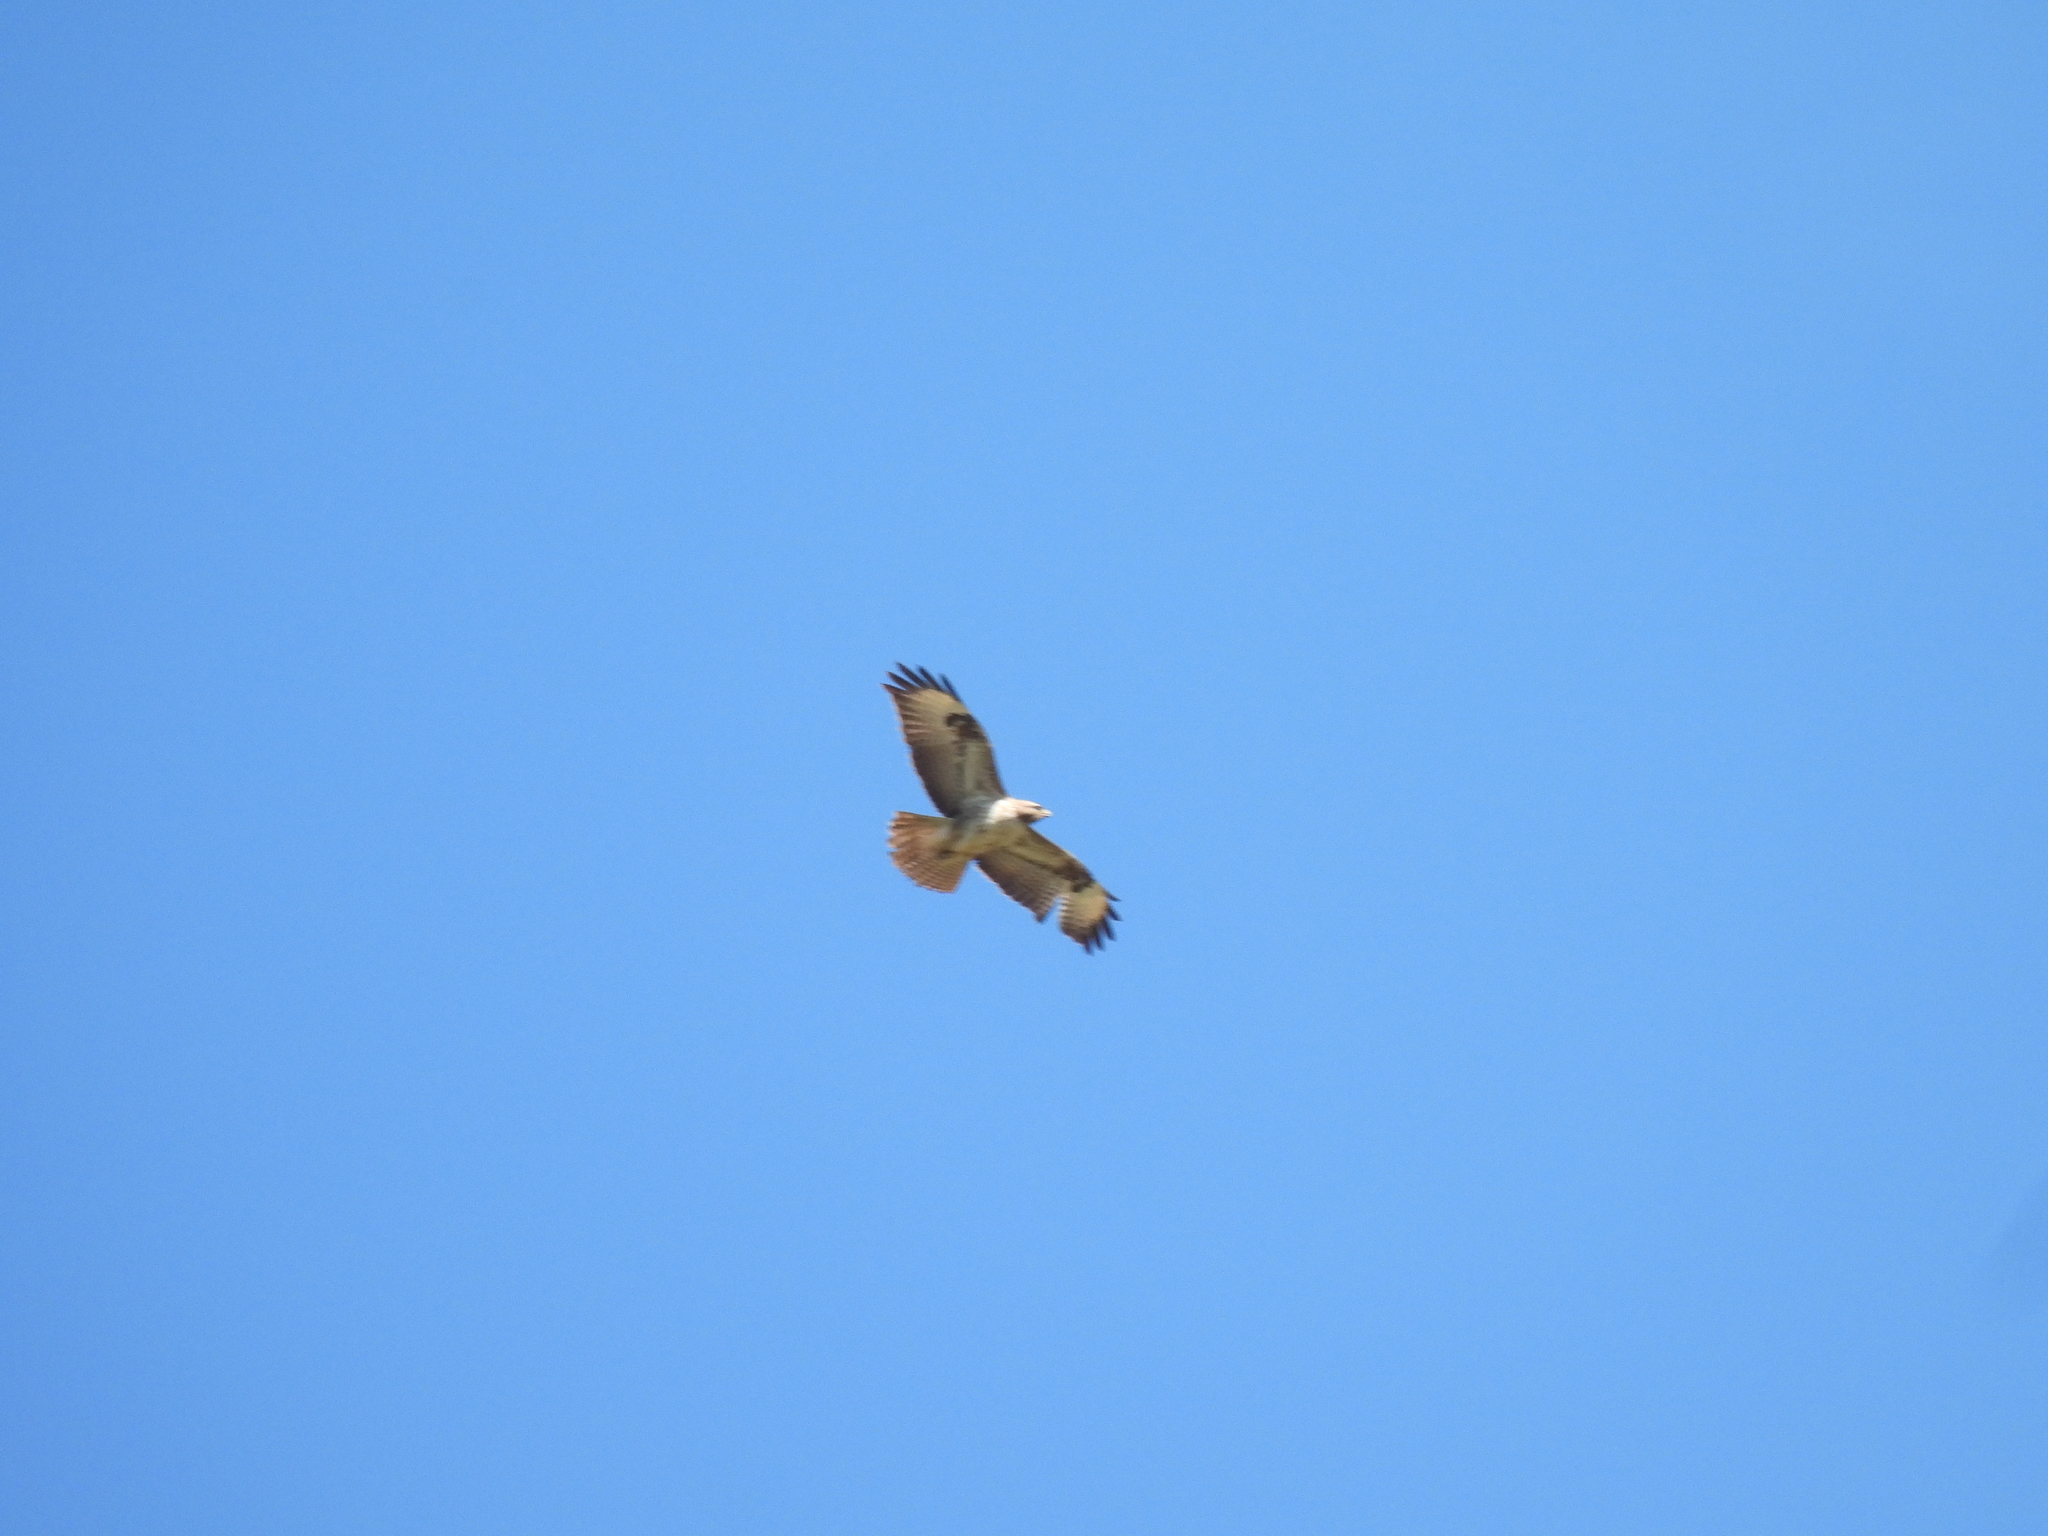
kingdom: Animalia
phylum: Chordata
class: Aves
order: Accipitriformes
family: Accipitridae
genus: Buteo
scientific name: Buteo buteo
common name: Common buzzard
